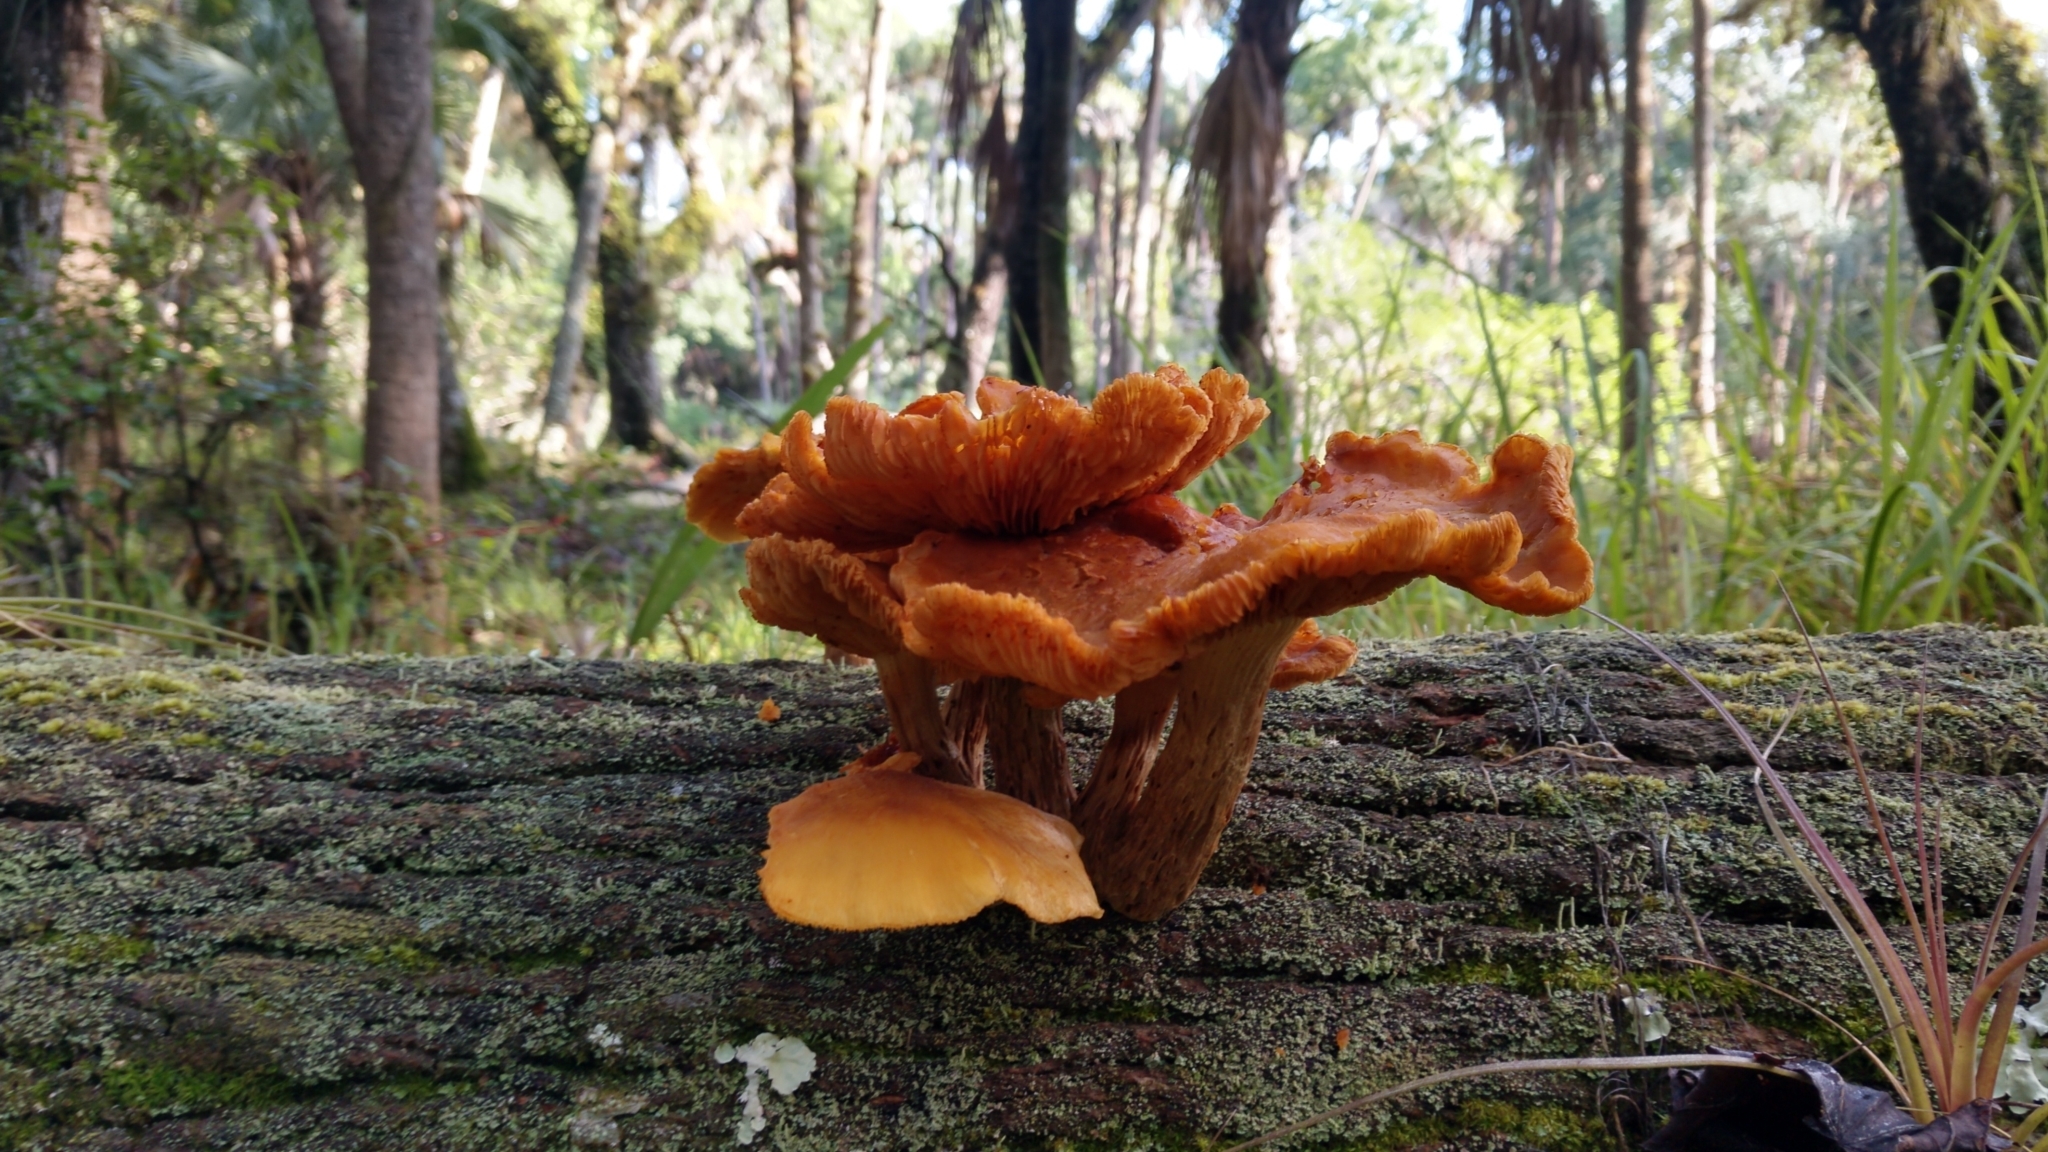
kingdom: Fungi
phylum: Basidiomycota
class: Agaricomycetes
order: Agaricales
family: Omphalotaceae
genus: Omphalotus
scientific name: Omphalotus subilludens
